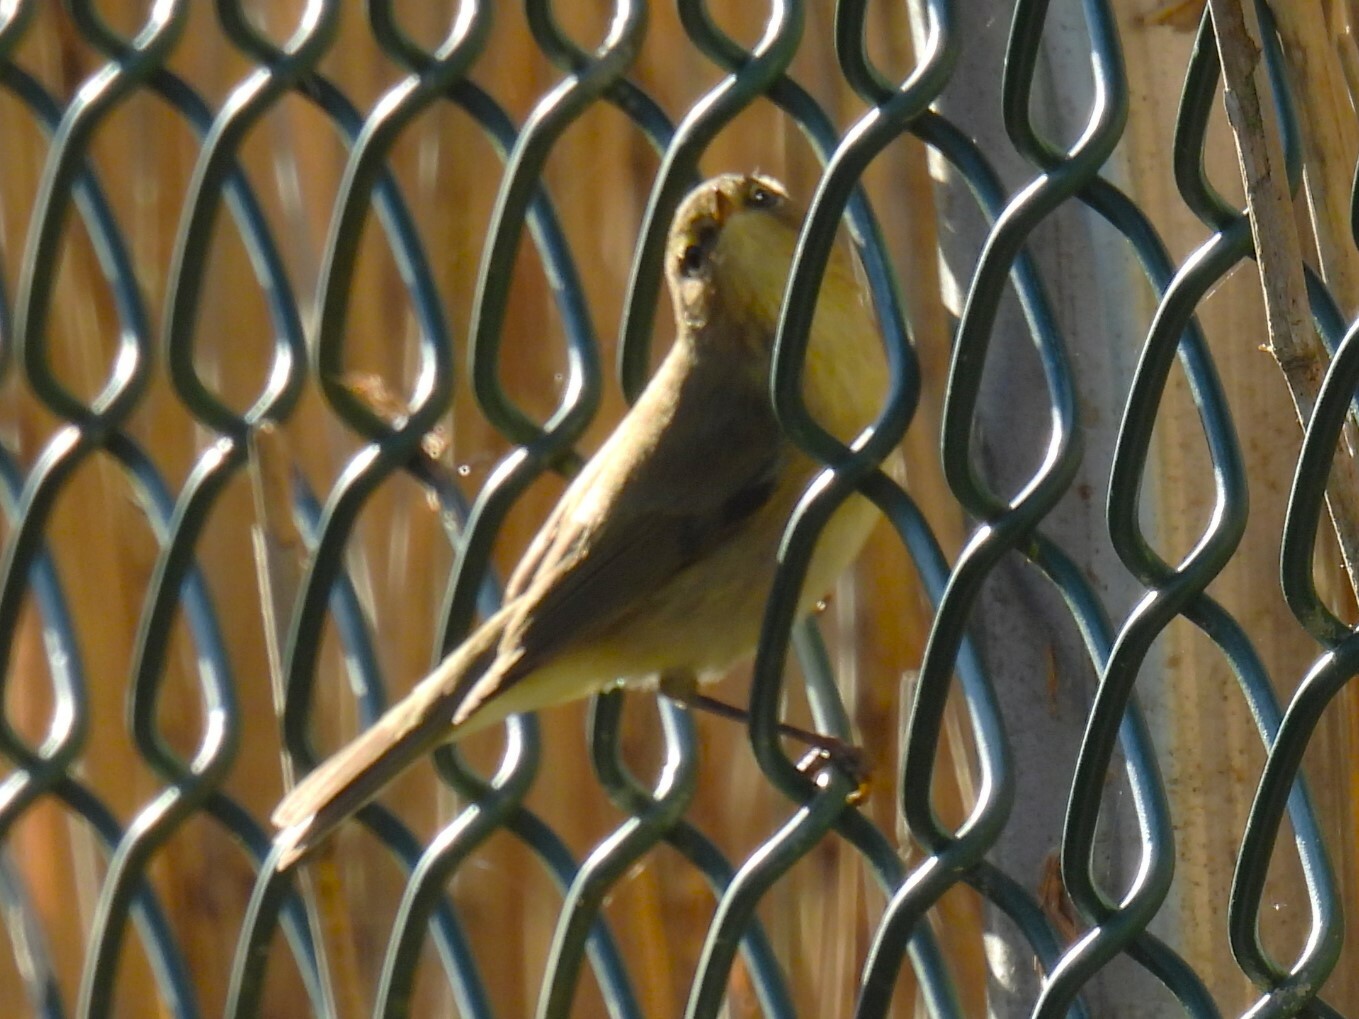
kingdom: Animalia
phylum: Chordata
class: Aves
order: Passeriformes
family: Phylloscopidae
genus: Phylloscopus
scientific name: Phylloscopus collybita
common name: Common chiffchaff
